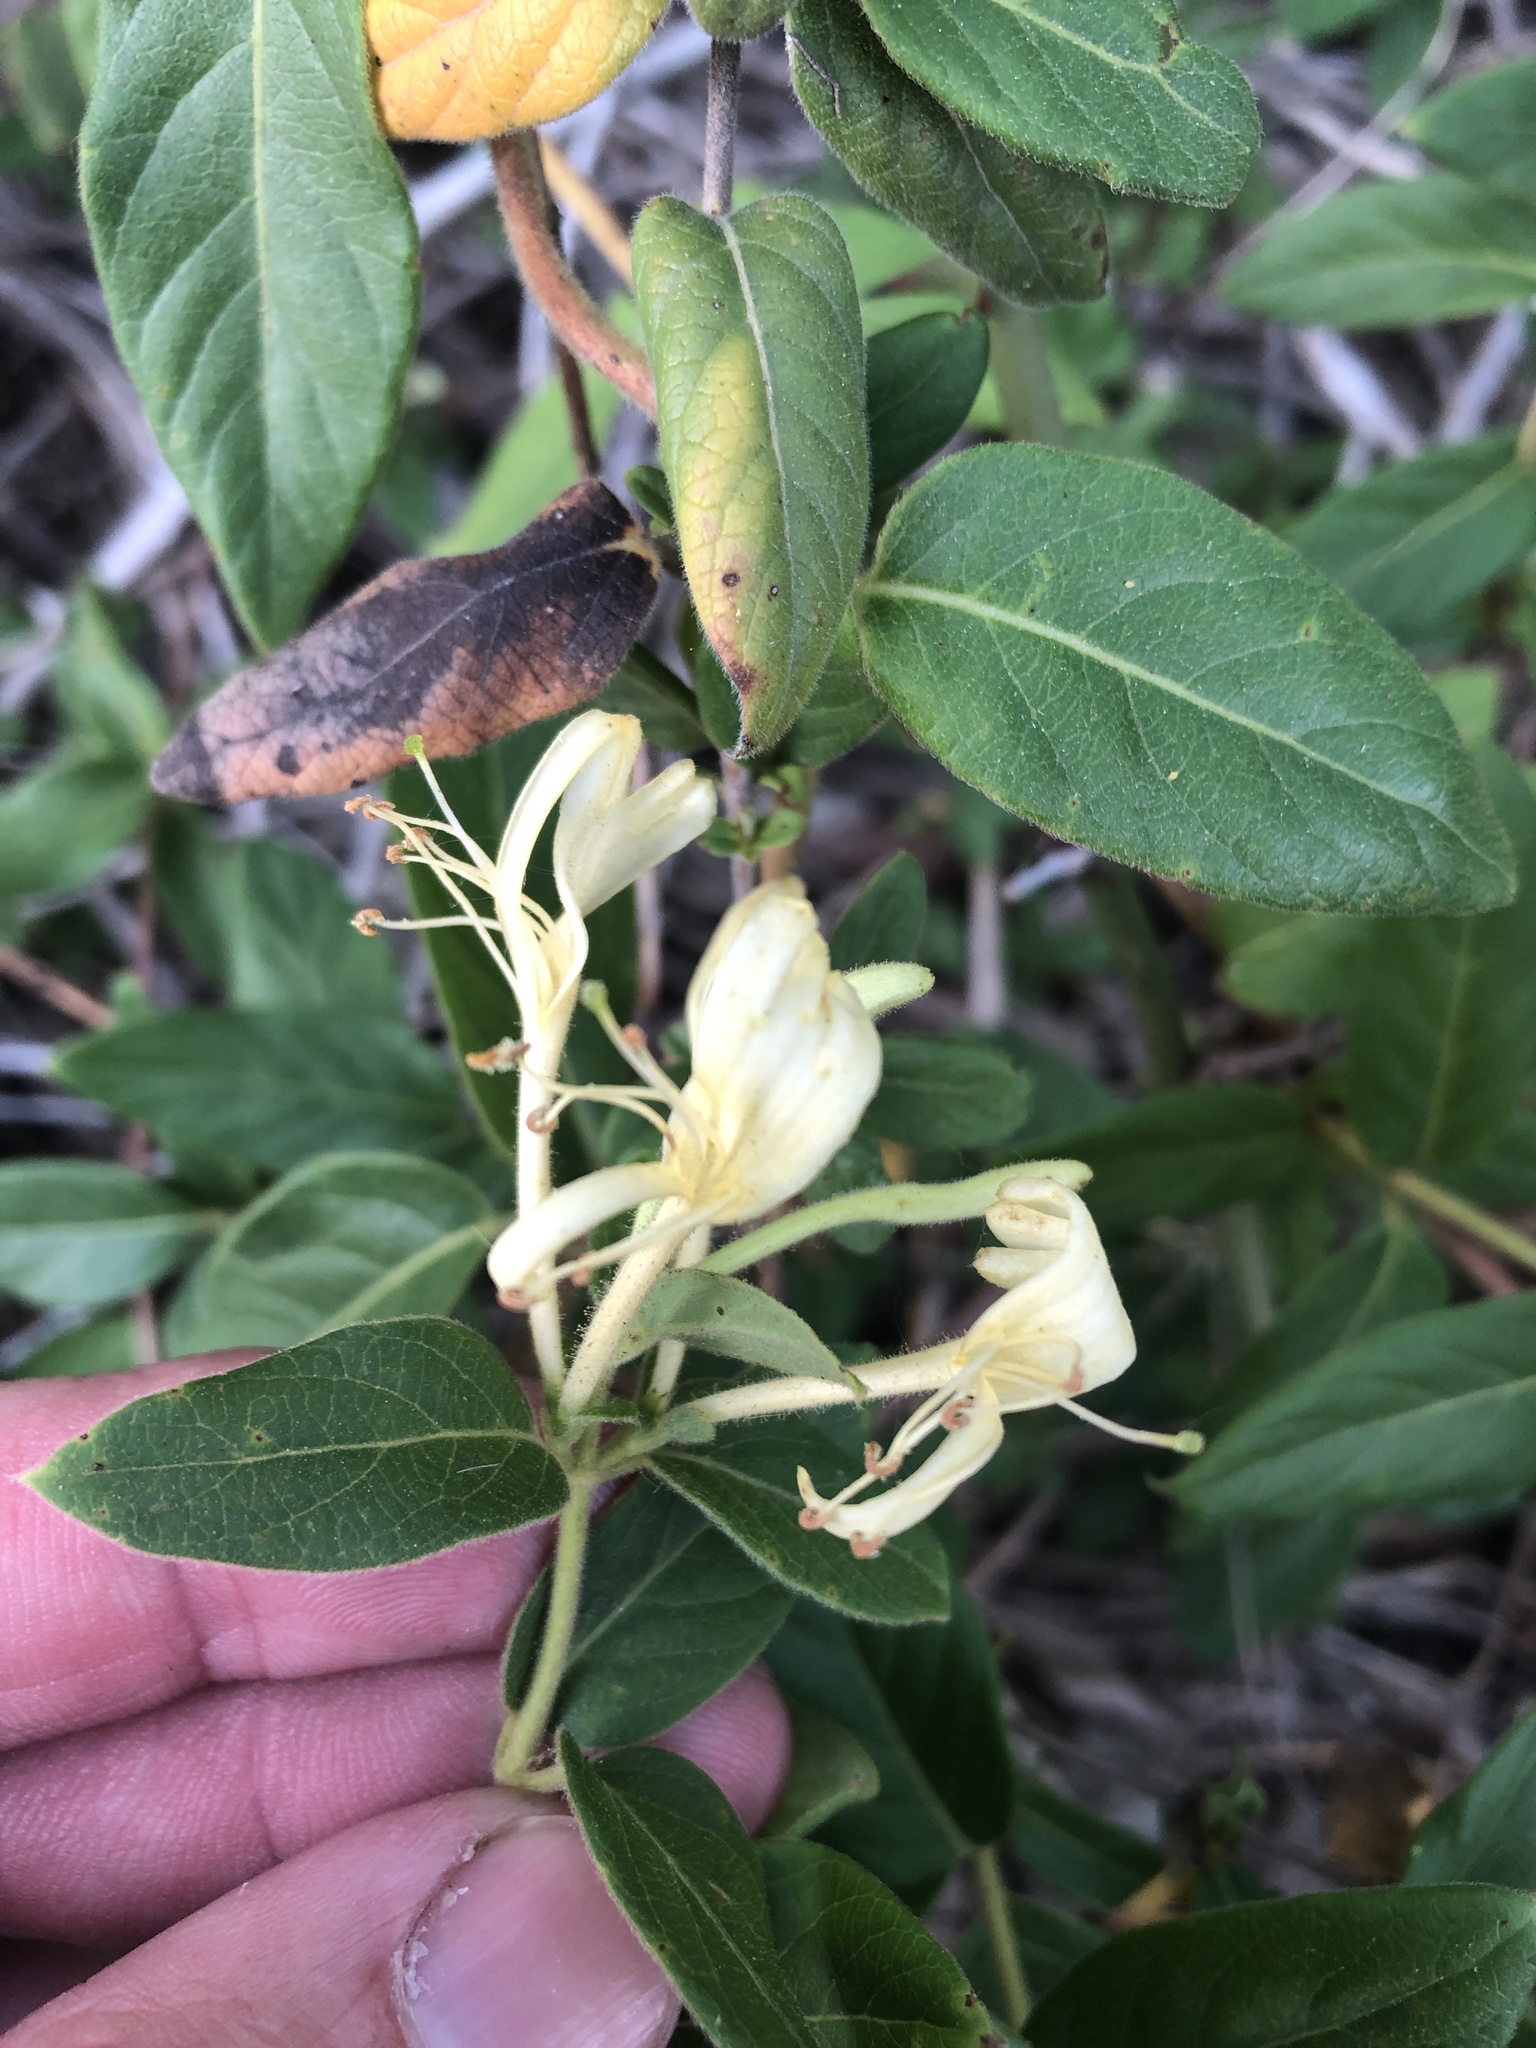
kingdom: Plantae
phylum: Tracheophyta
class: Magnoliopsida
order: Dipsacales
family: Caprifoliaceae
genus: Lonicera
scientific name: Lonicera japonica
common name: Japanese honeysuckle
